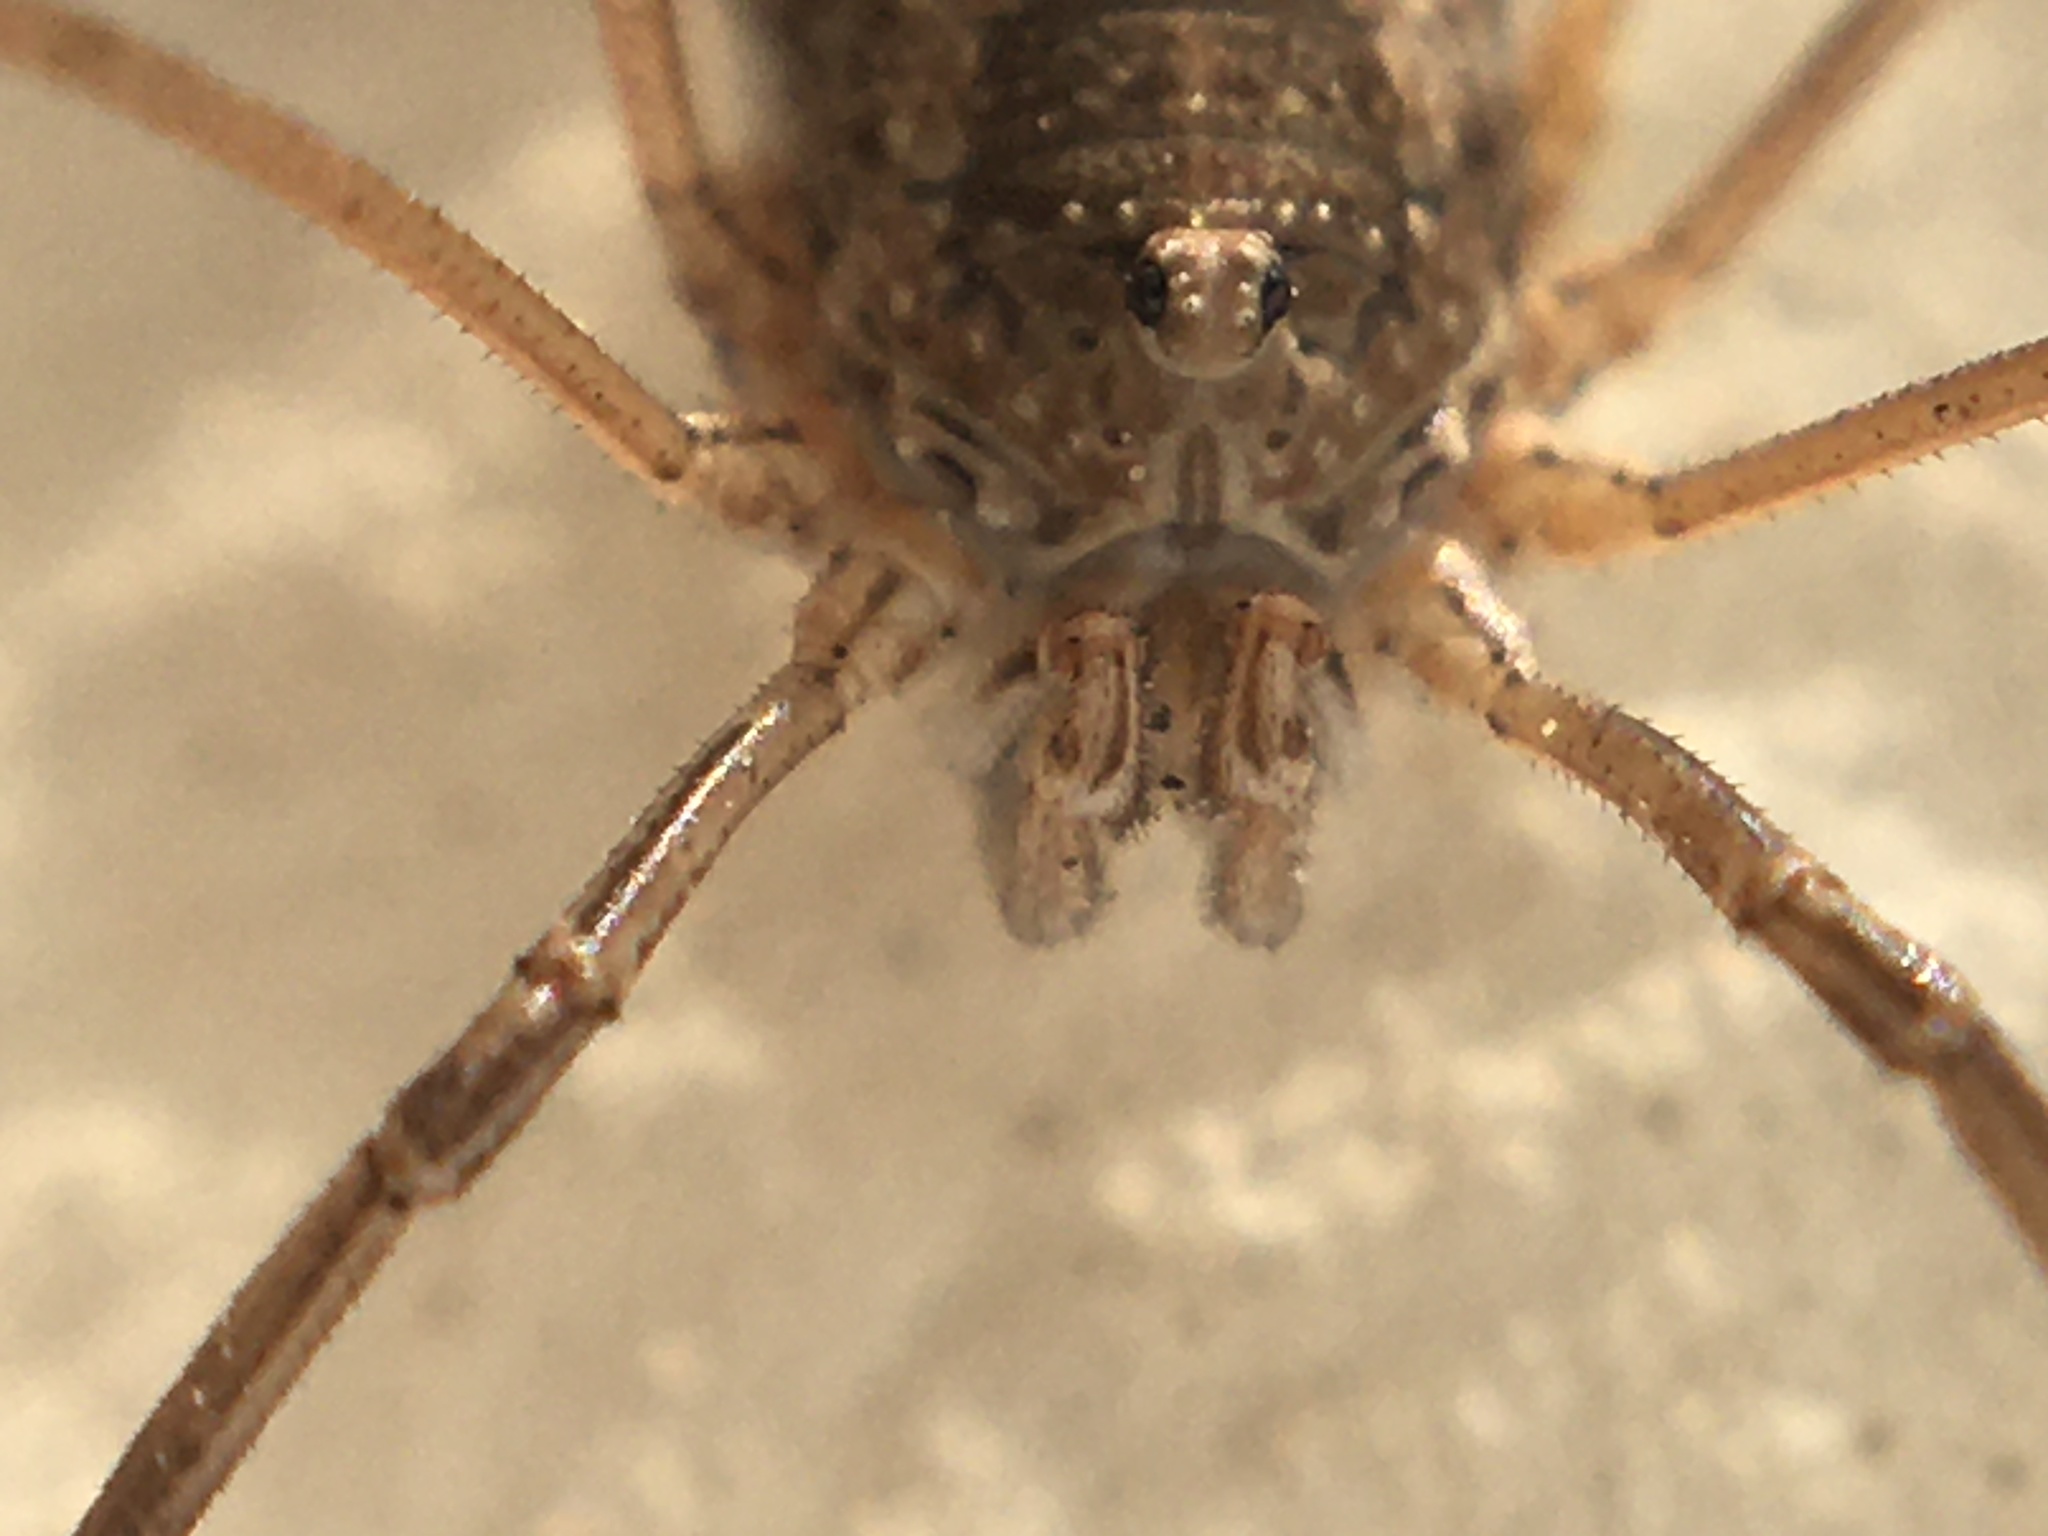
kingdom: Animalia
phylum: Arthropoda
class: Arachnida
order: Opiliones
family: Phalangiidae
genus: Phalangium
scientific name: Phalangium opilio
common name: Daddy longleg
